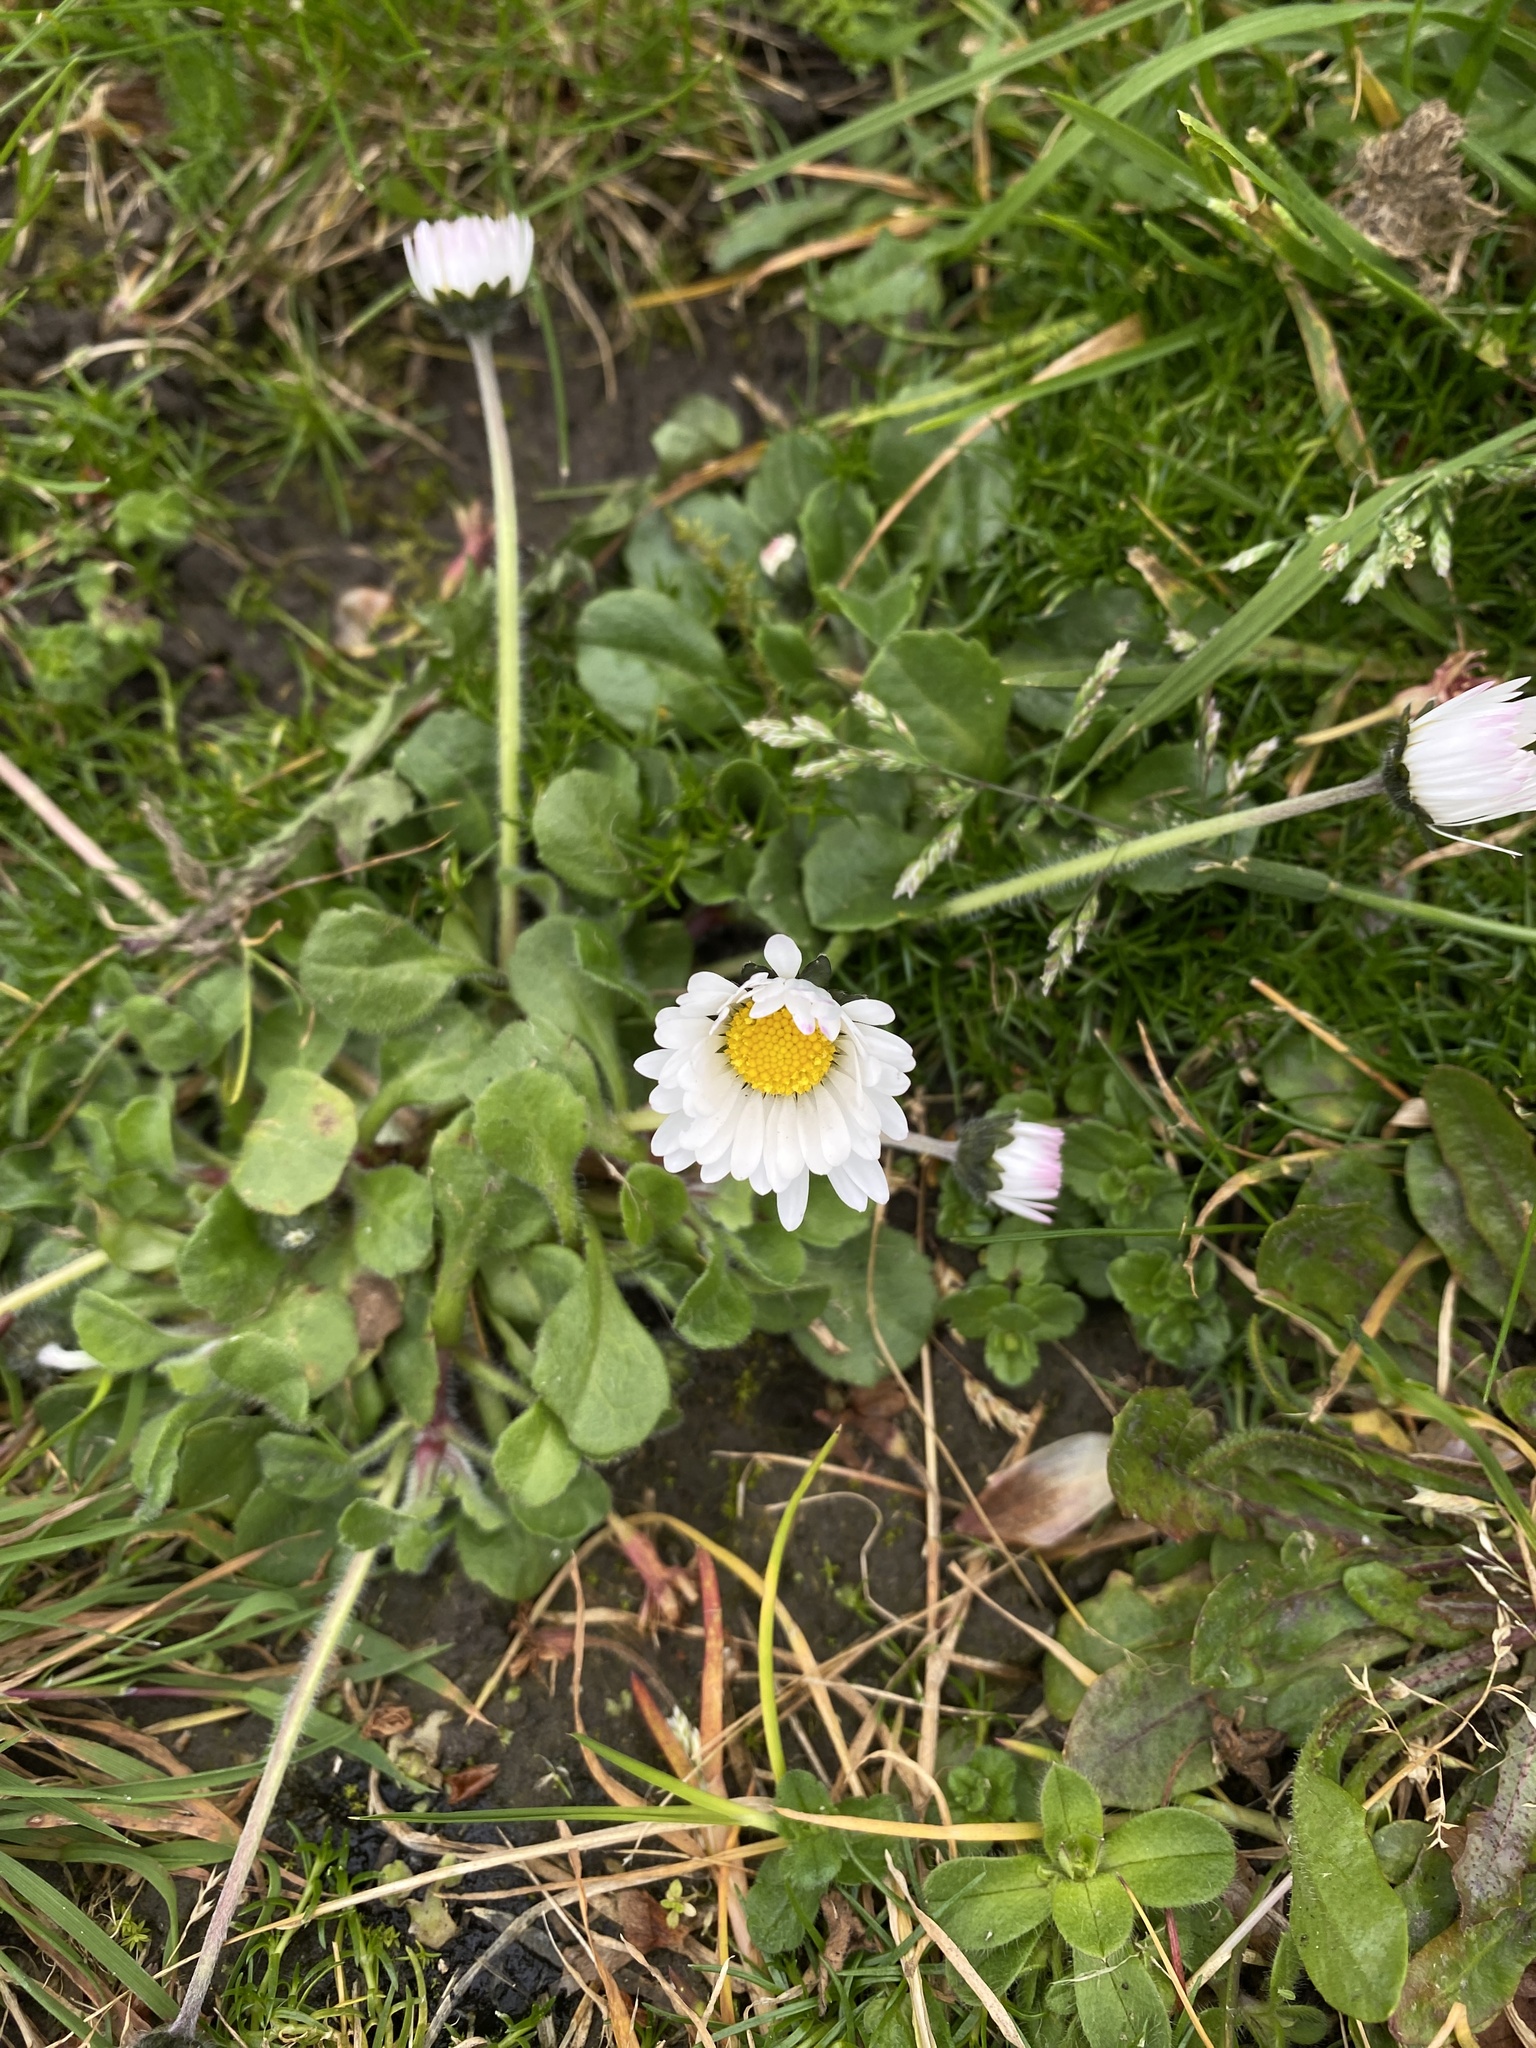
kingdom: Plantae
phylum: Tracheophyta
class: Magnoliopsida
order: Asterales
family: Asteraceae
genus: Bellis
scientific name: Bellis perennis
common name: Lawndaisy
